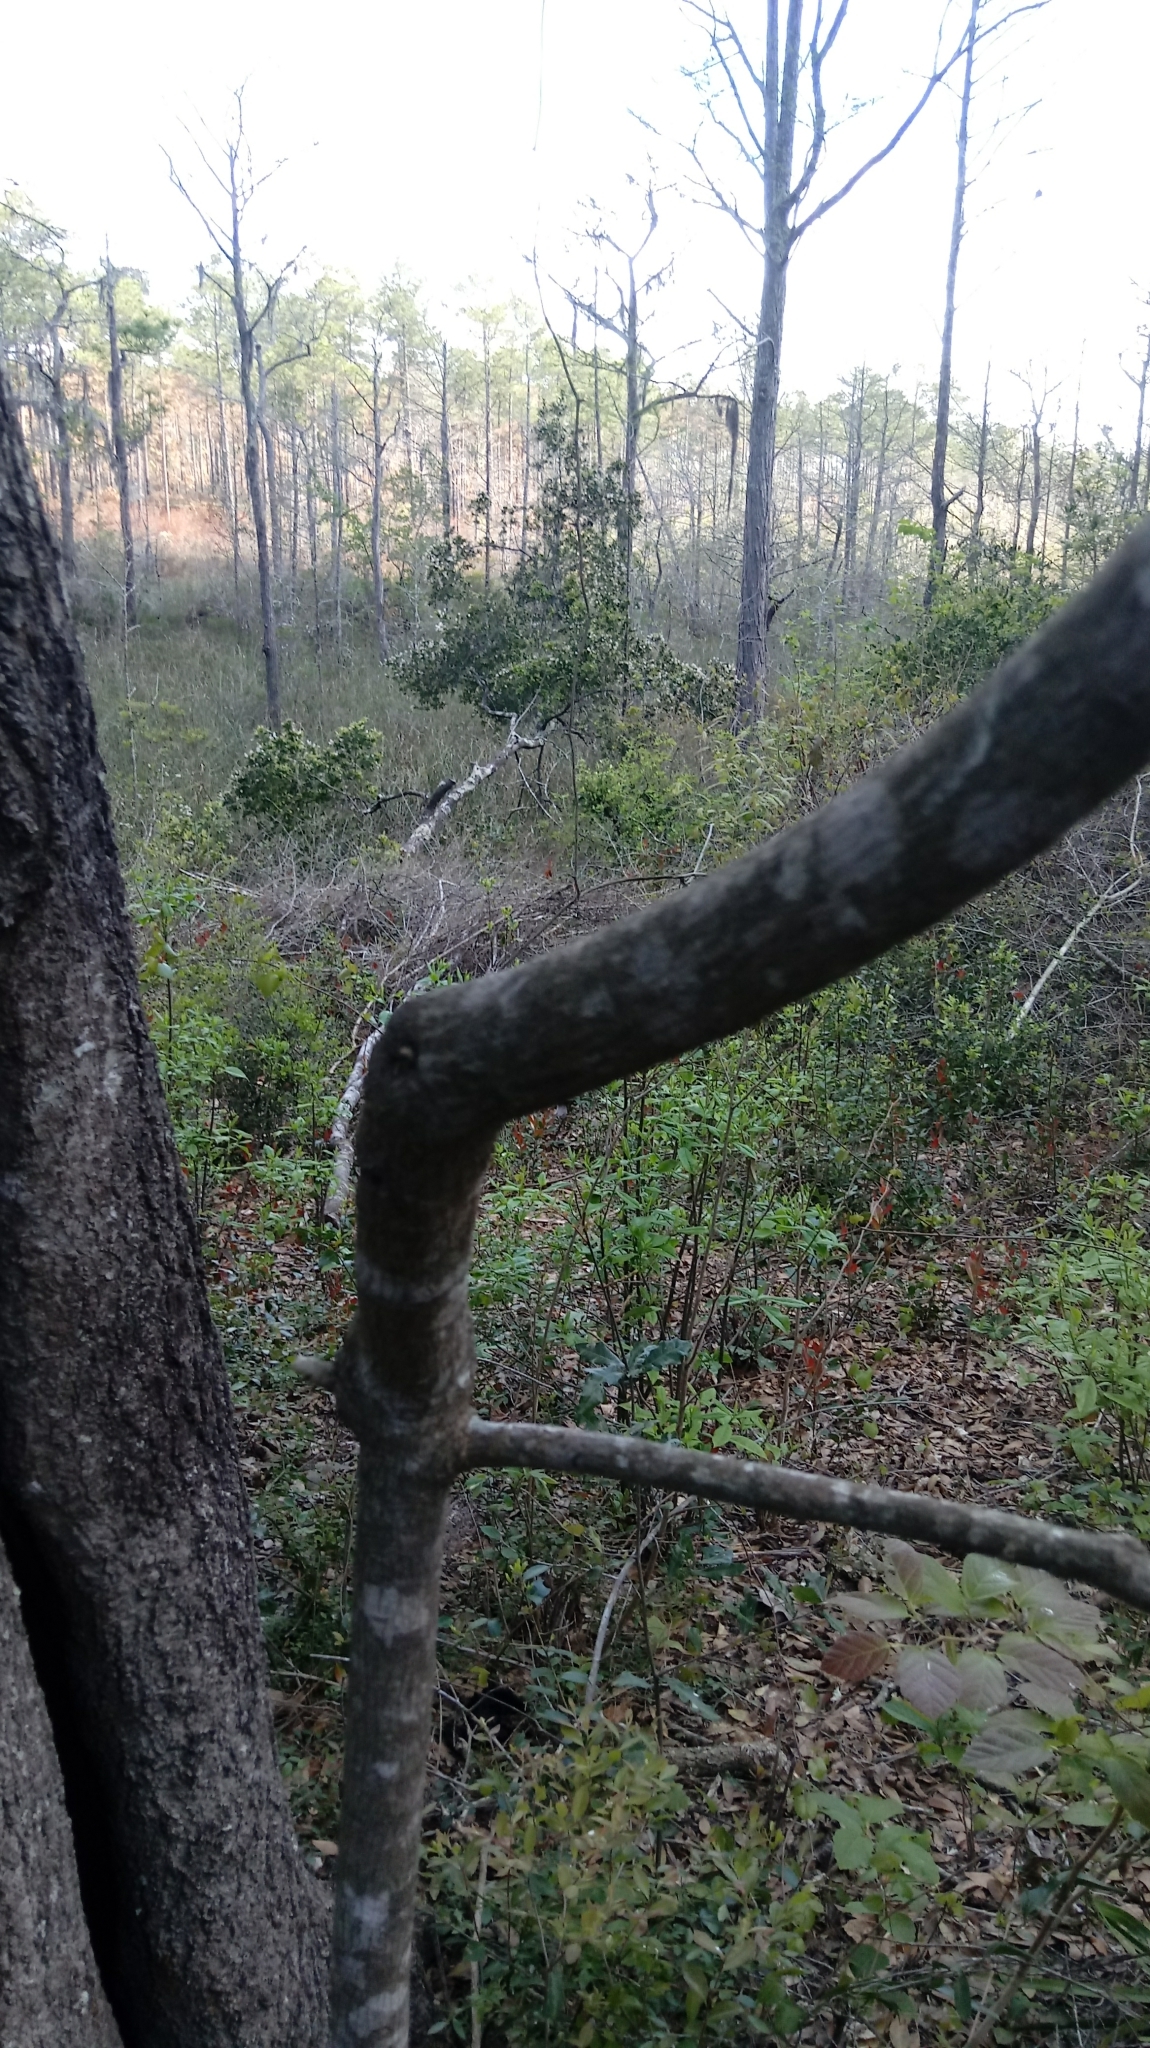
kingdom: Plantae
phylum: Tracheophyta
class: Magnoliopsida
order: Cornales
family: Nyssaceae
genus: Nyssa
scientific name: Nyssa sylvatica
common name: Black tupelo
